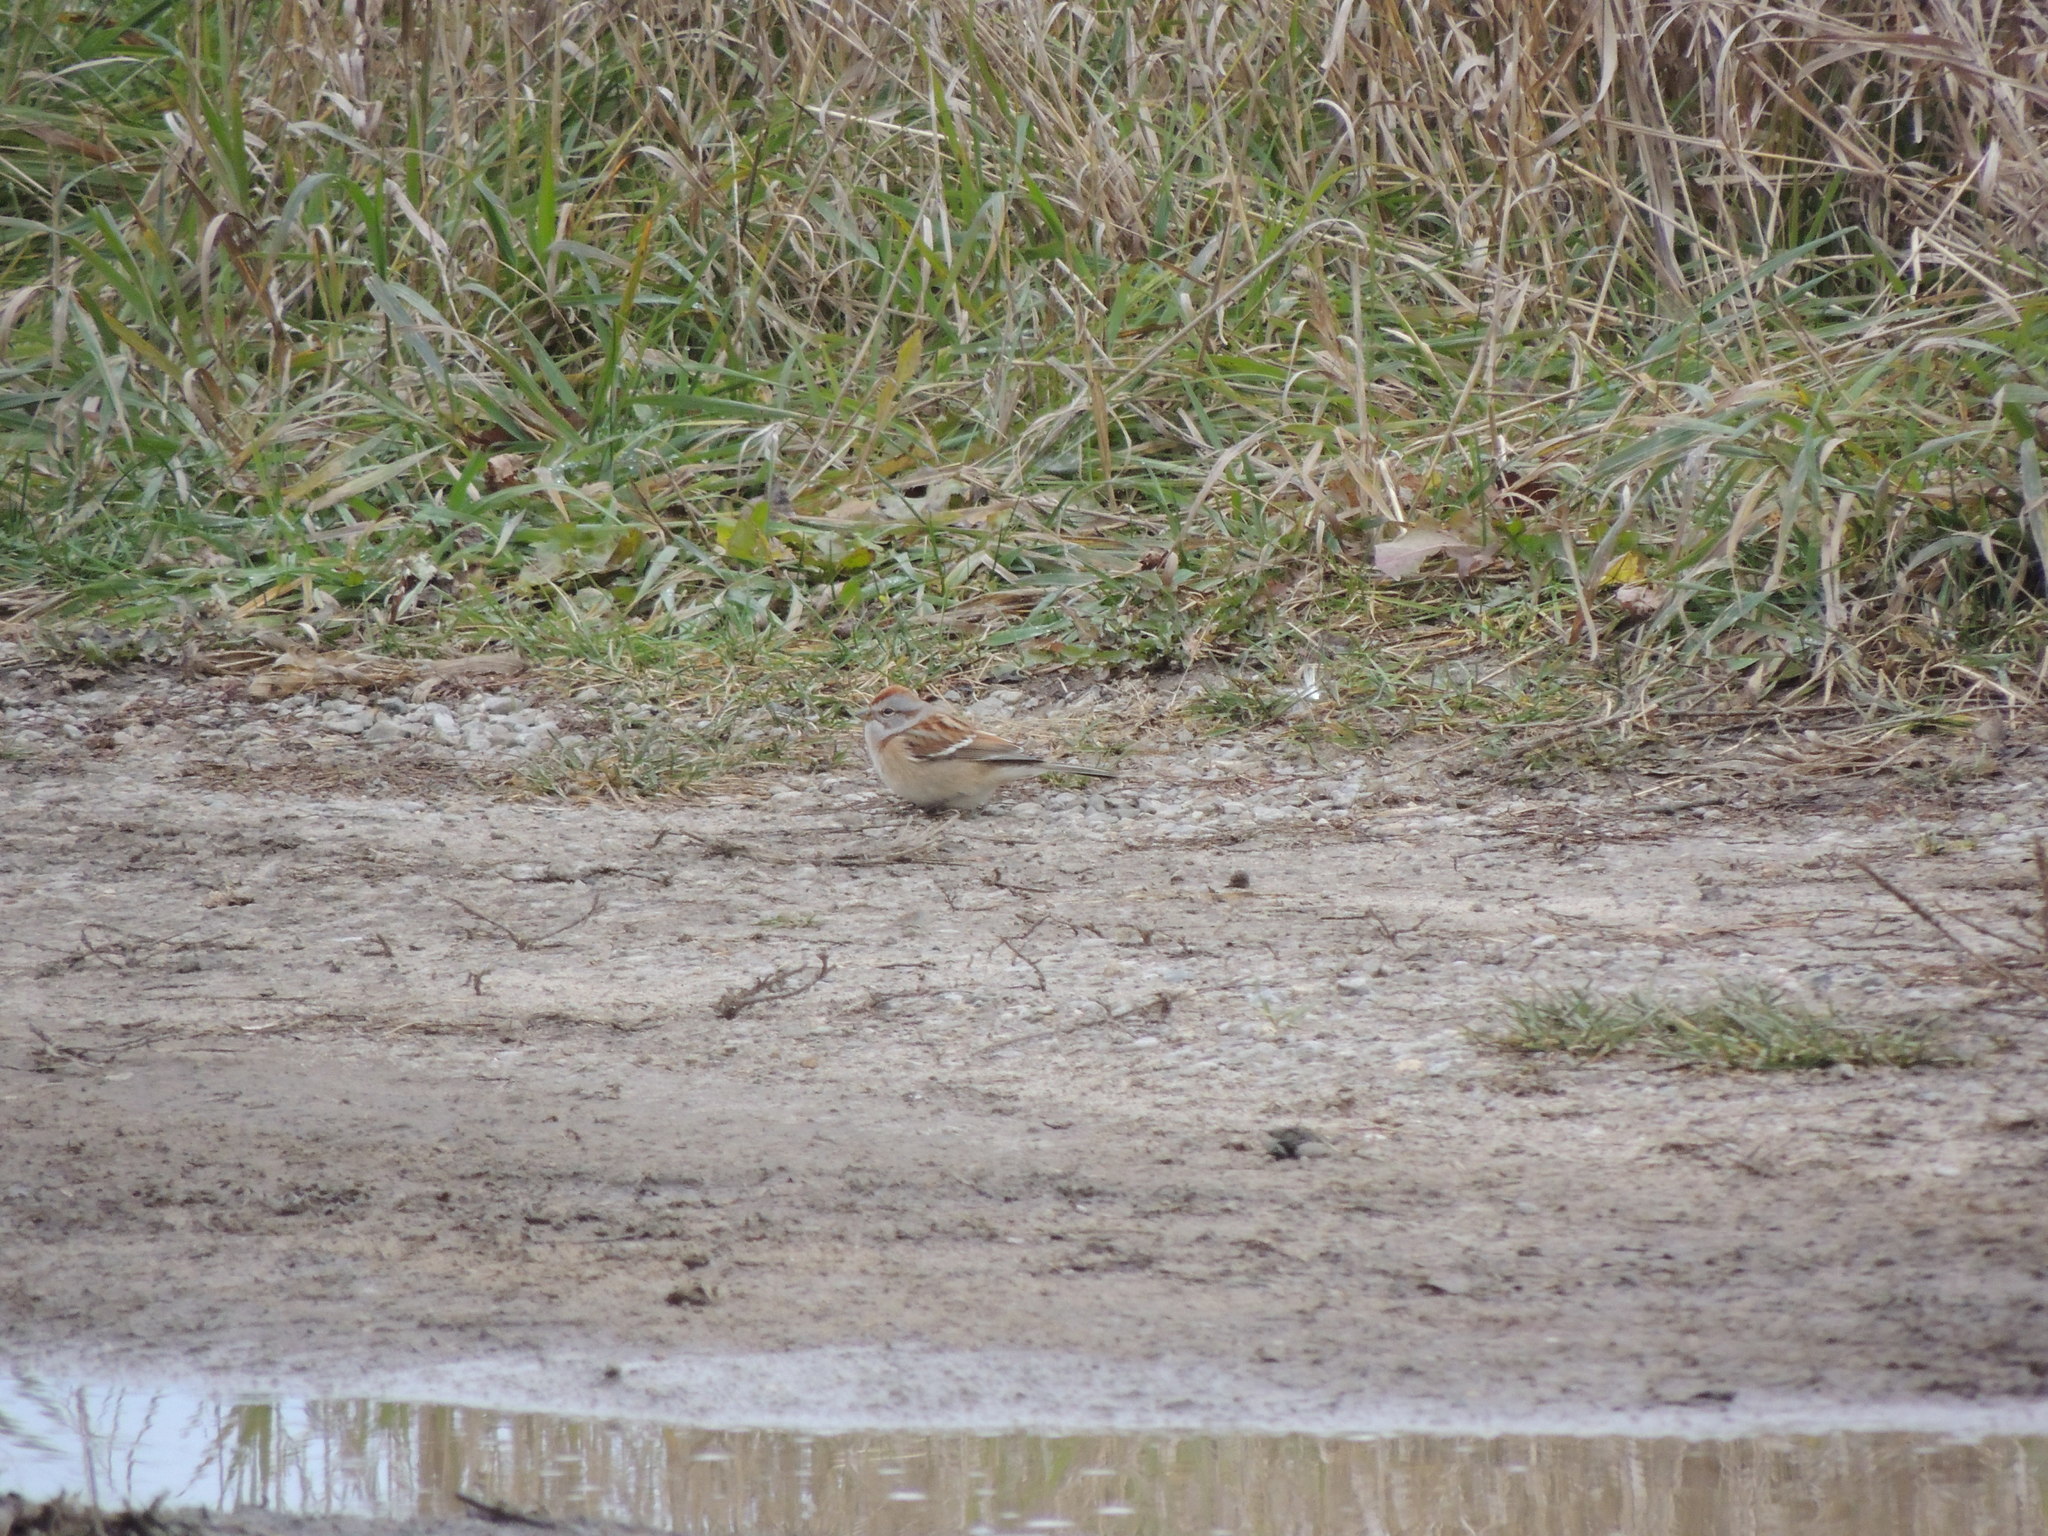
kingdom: Animalia
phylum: Chordata
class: Aves
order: Passeriformes
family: Passerellidae
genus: Spizelloides
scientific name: Spizelloides arborea
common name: American tree sparrow
